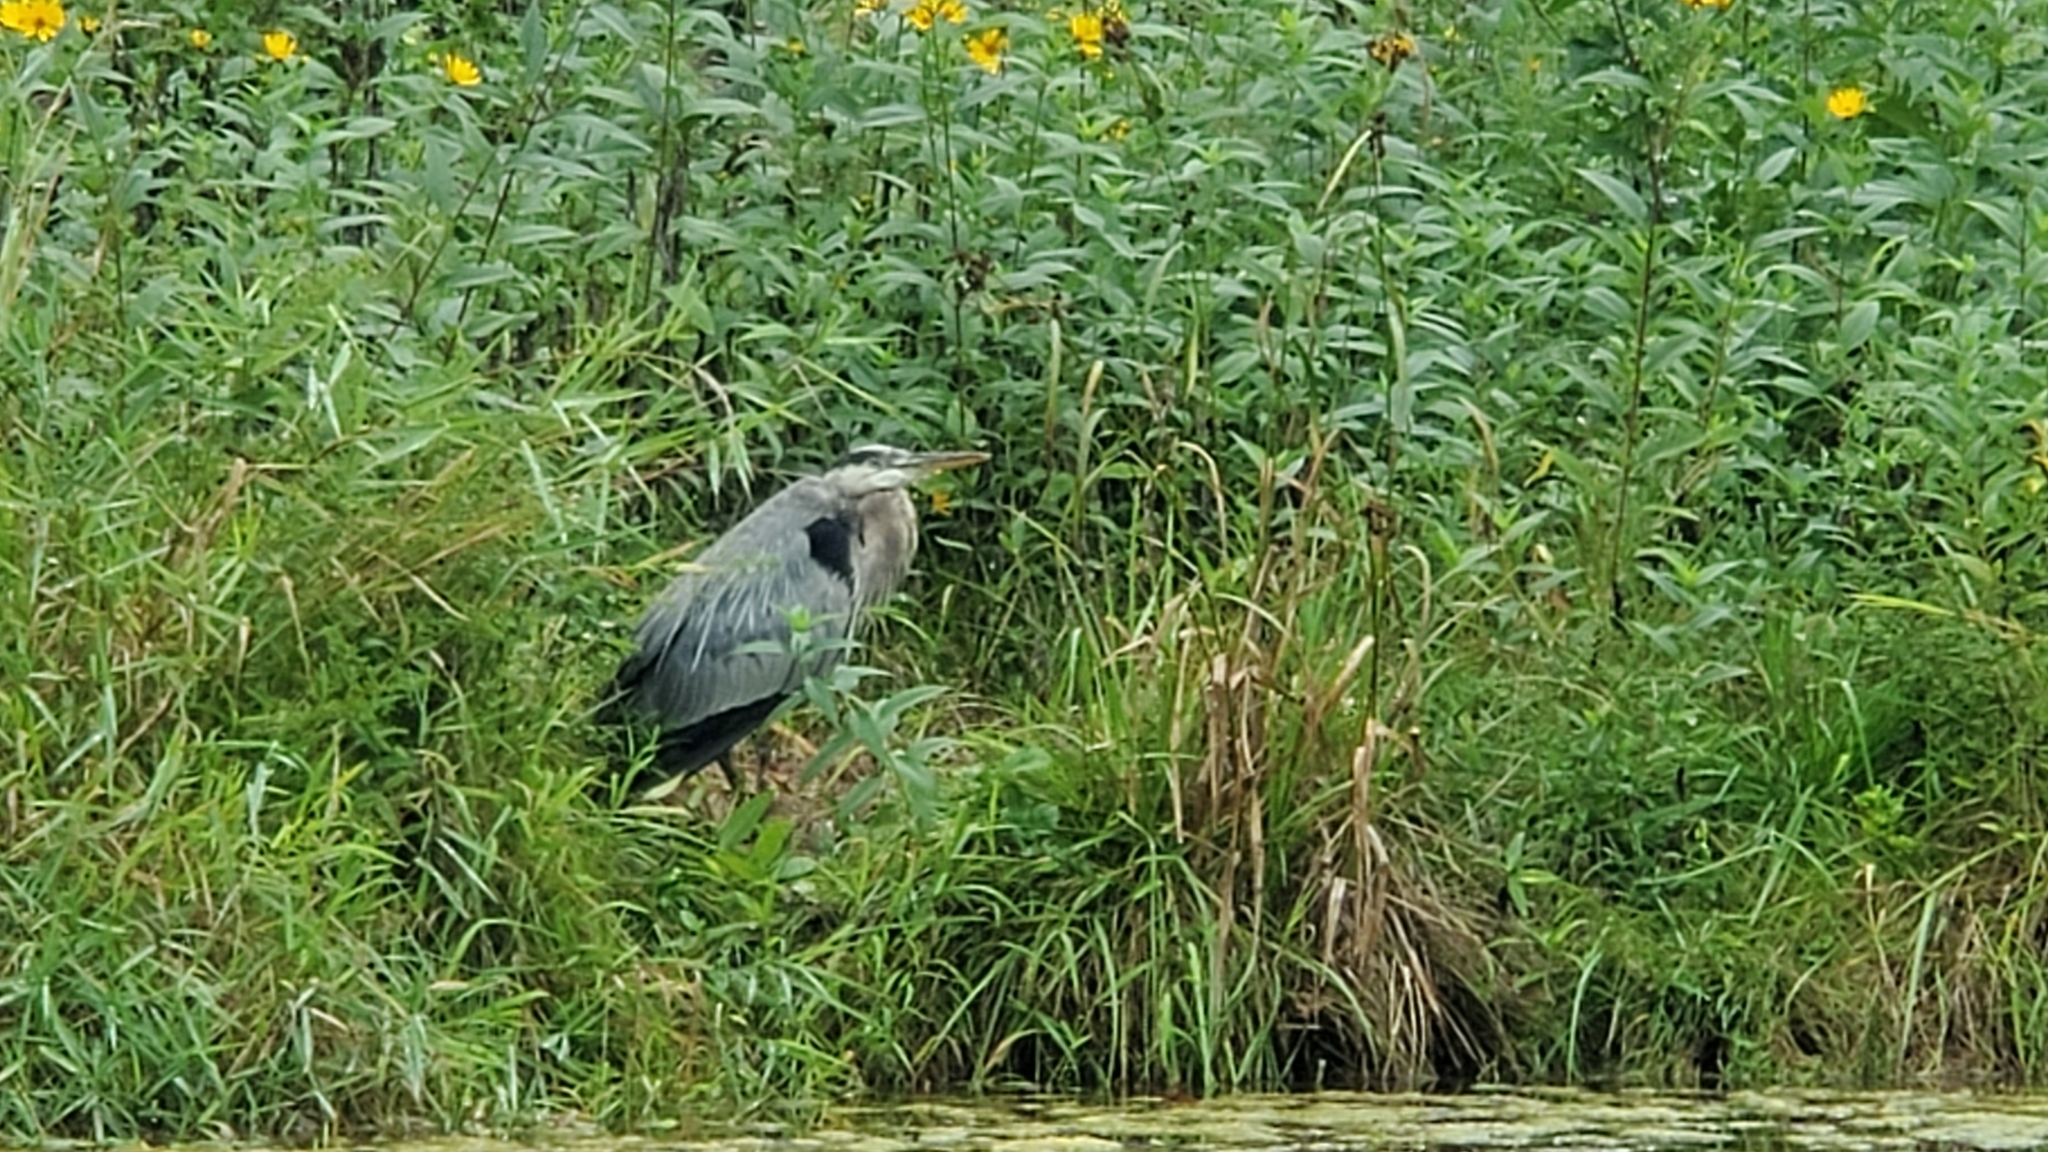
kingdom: Animalia
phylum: Chordata
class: Aves
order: Pelecaniformes
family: Ardeidae
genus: Ardea
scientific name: Ardea herodias
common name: Great blue heron
